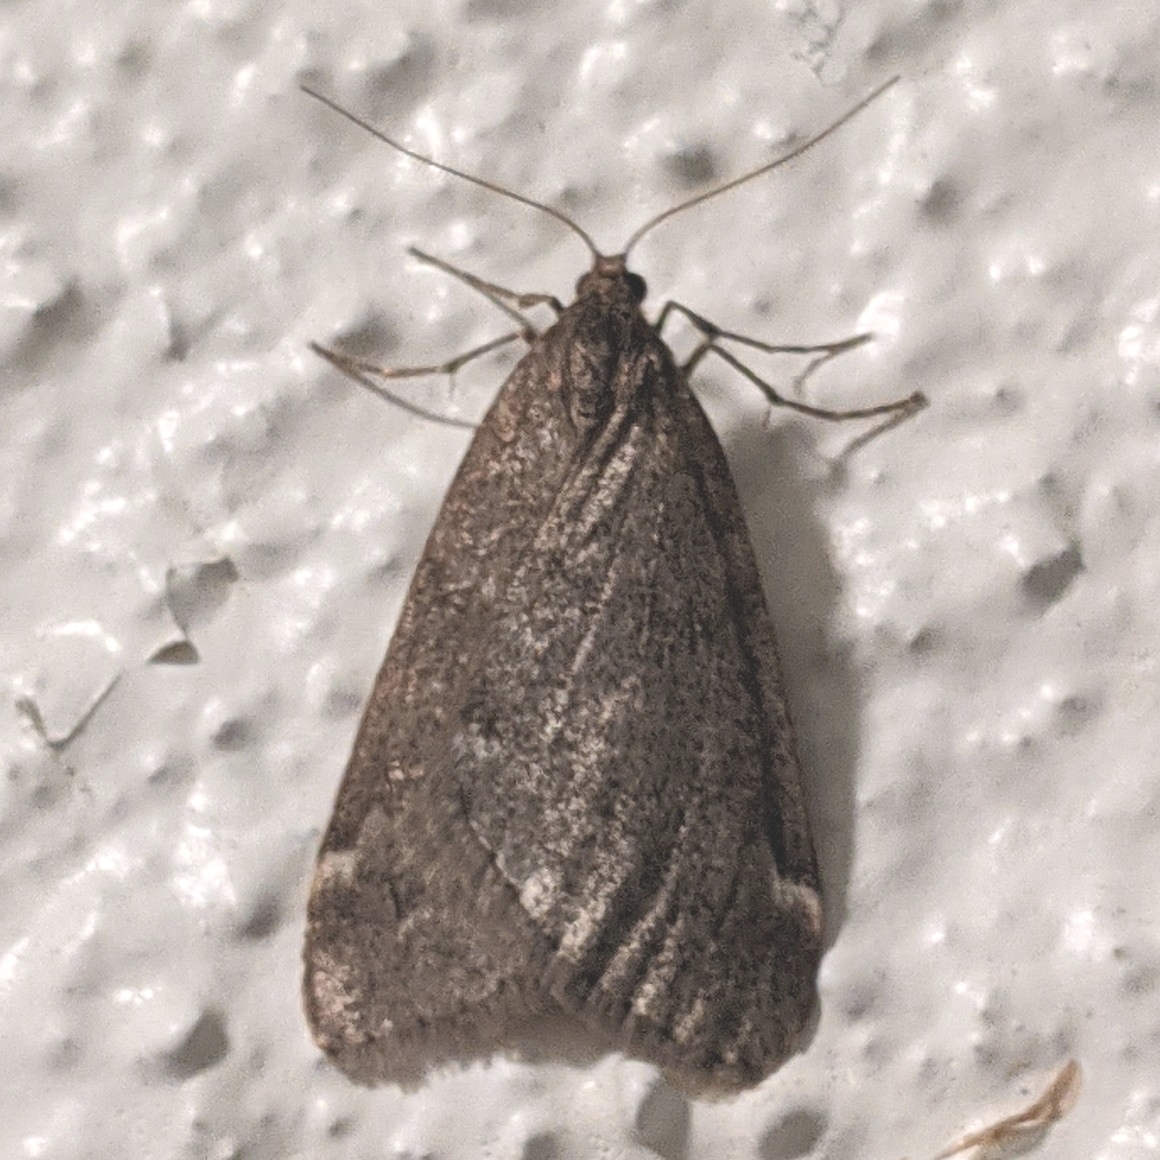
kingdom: Animalia
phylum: Arthropoda
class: Insecta
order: Lepidoptera
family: Geometridae
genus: Alsophila
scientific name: Alsophila pometaria
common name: Fall cankerworm
